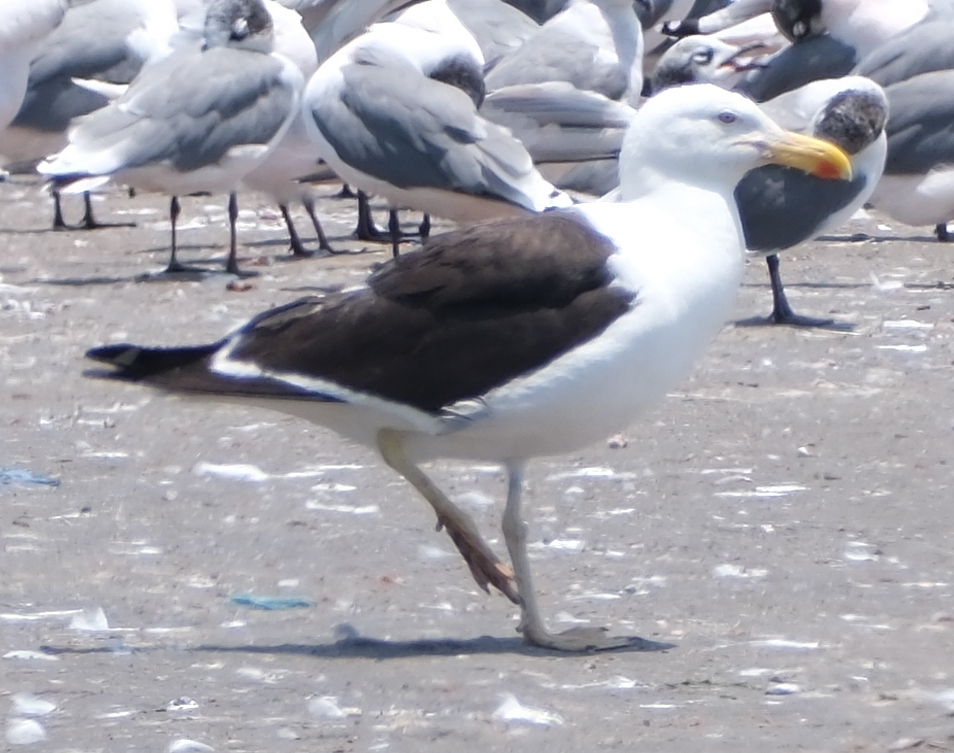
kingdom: Animalia
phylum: Chordata
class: Aves
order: Charadriiformes
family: Laridae
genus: Larus
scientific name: Larus dominicanus
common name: Kelp gull
